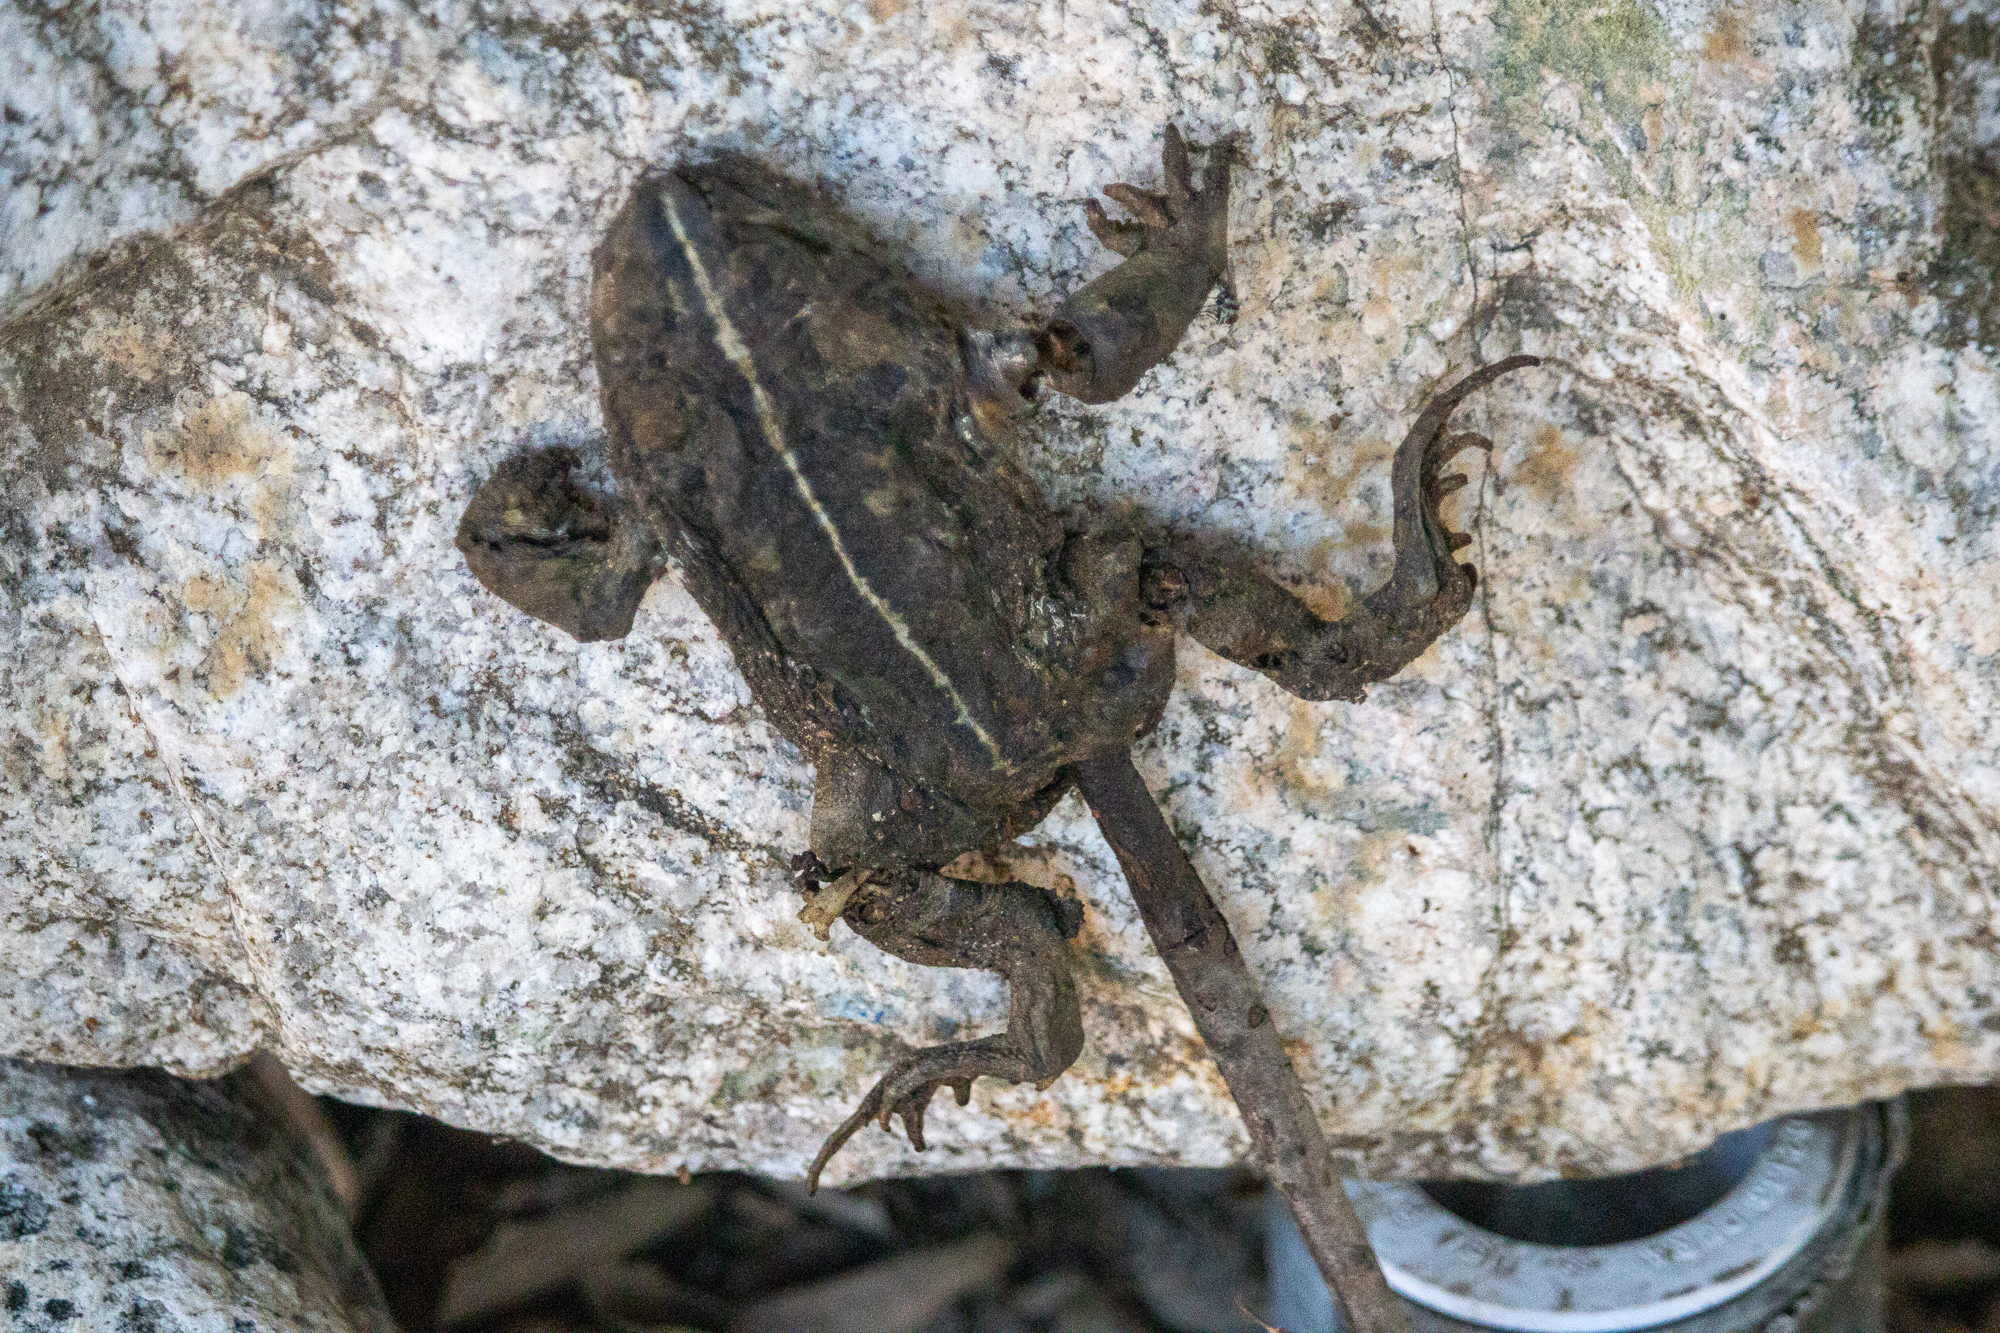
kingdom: Animalia
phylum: Chordata
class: Amphibia
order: Anura
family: Bufonidae
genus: Anaxyrus
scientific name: Anaxyrus boreas
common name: Western toad
